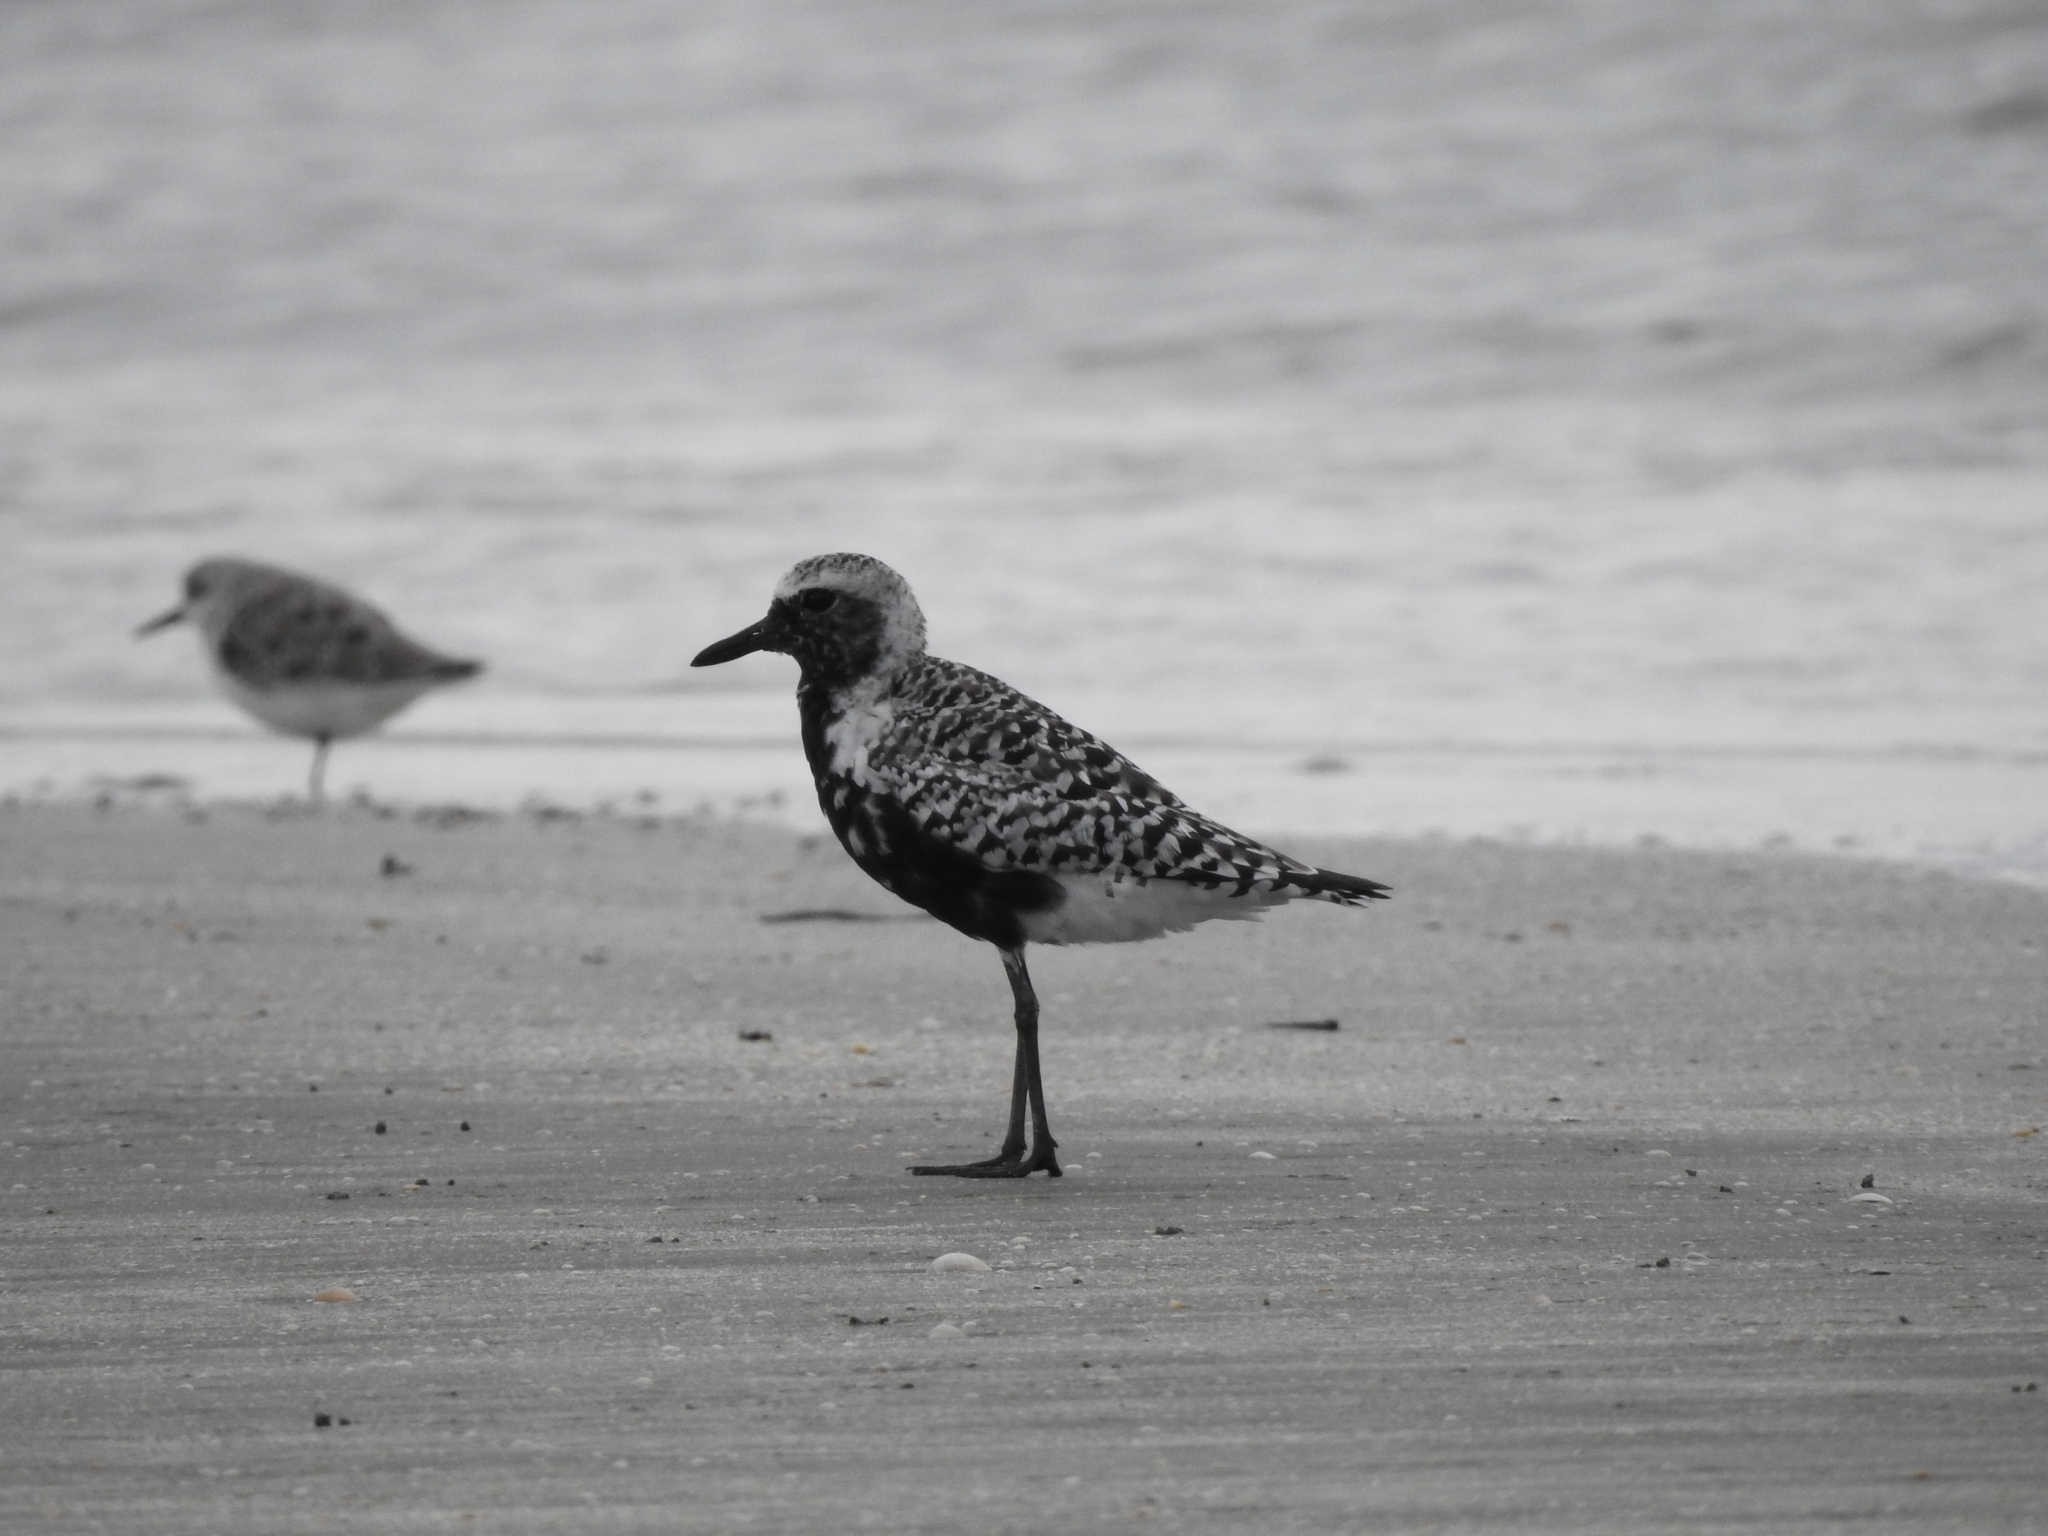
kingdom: Animalia
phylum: Chordata
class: Aves
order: Charadriiformes
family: Charadriidae
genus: Pluvialis
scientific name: Pluvialis squatarola
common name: Grey plover
